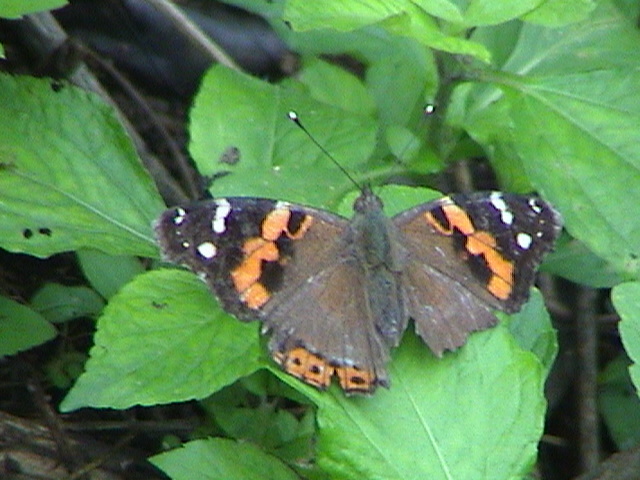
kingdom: Animalia
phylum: Arthropoda
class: Insecta
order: Lepidoptera
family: Nymphalidae
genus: Vanessa
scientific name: Vanessa indica
